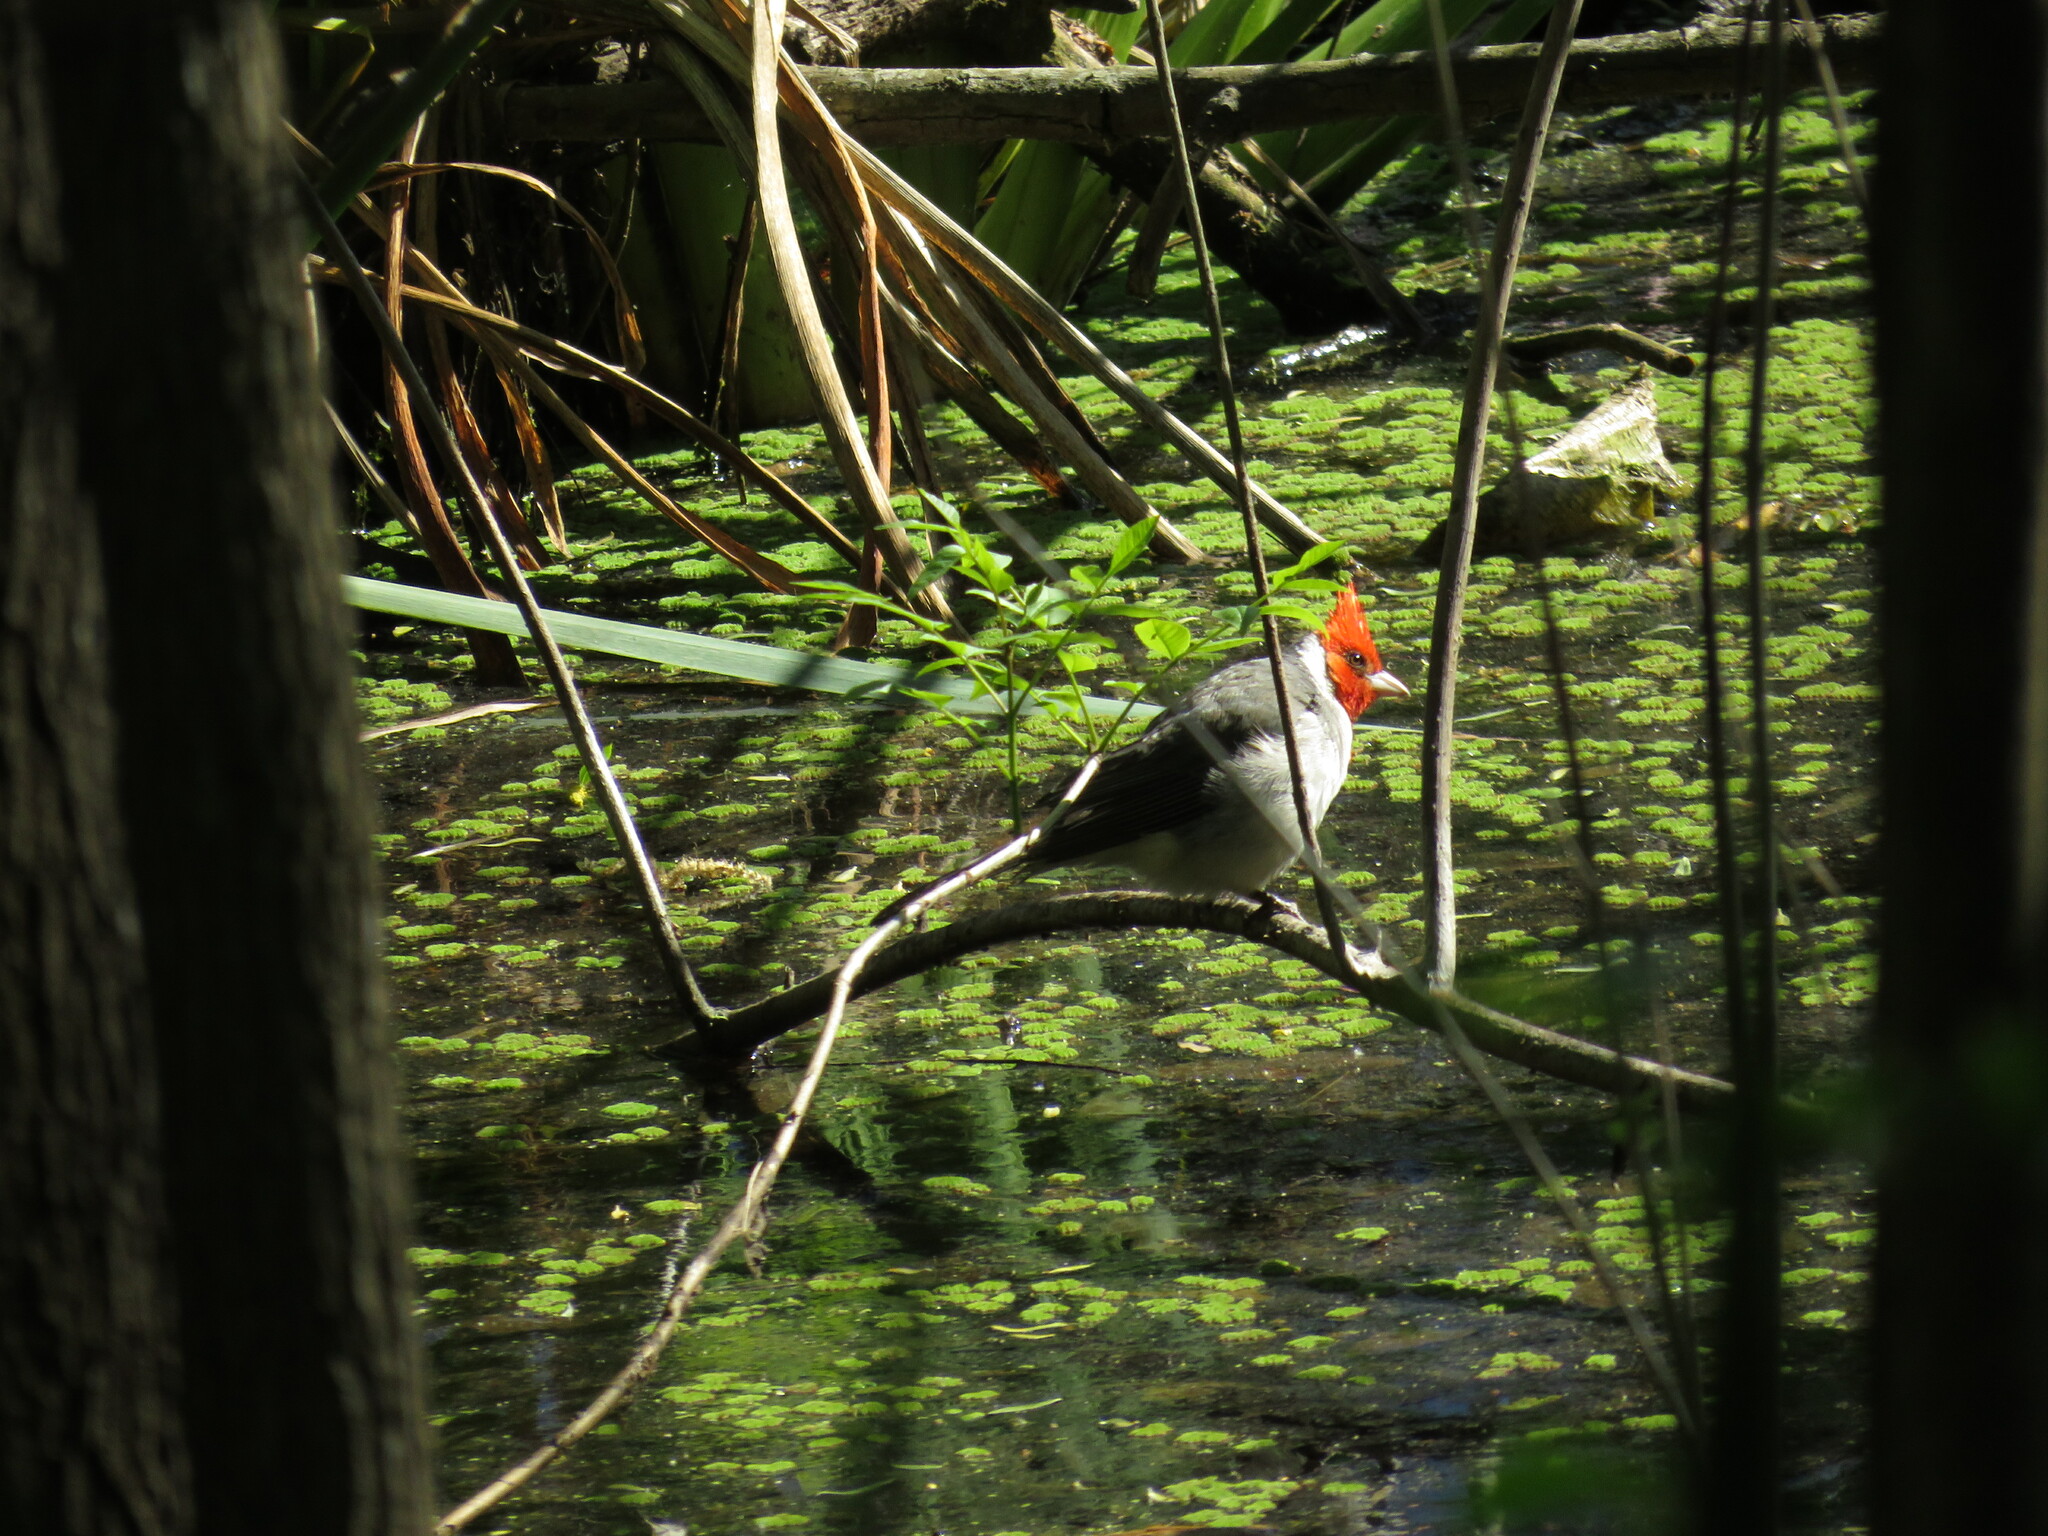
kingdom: Animalia
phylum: Chordata
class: Aves
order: Passeriformes
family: Thraupidae
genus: Paroaria
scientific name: Paroaria coronata
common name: Red-crested cardinal
